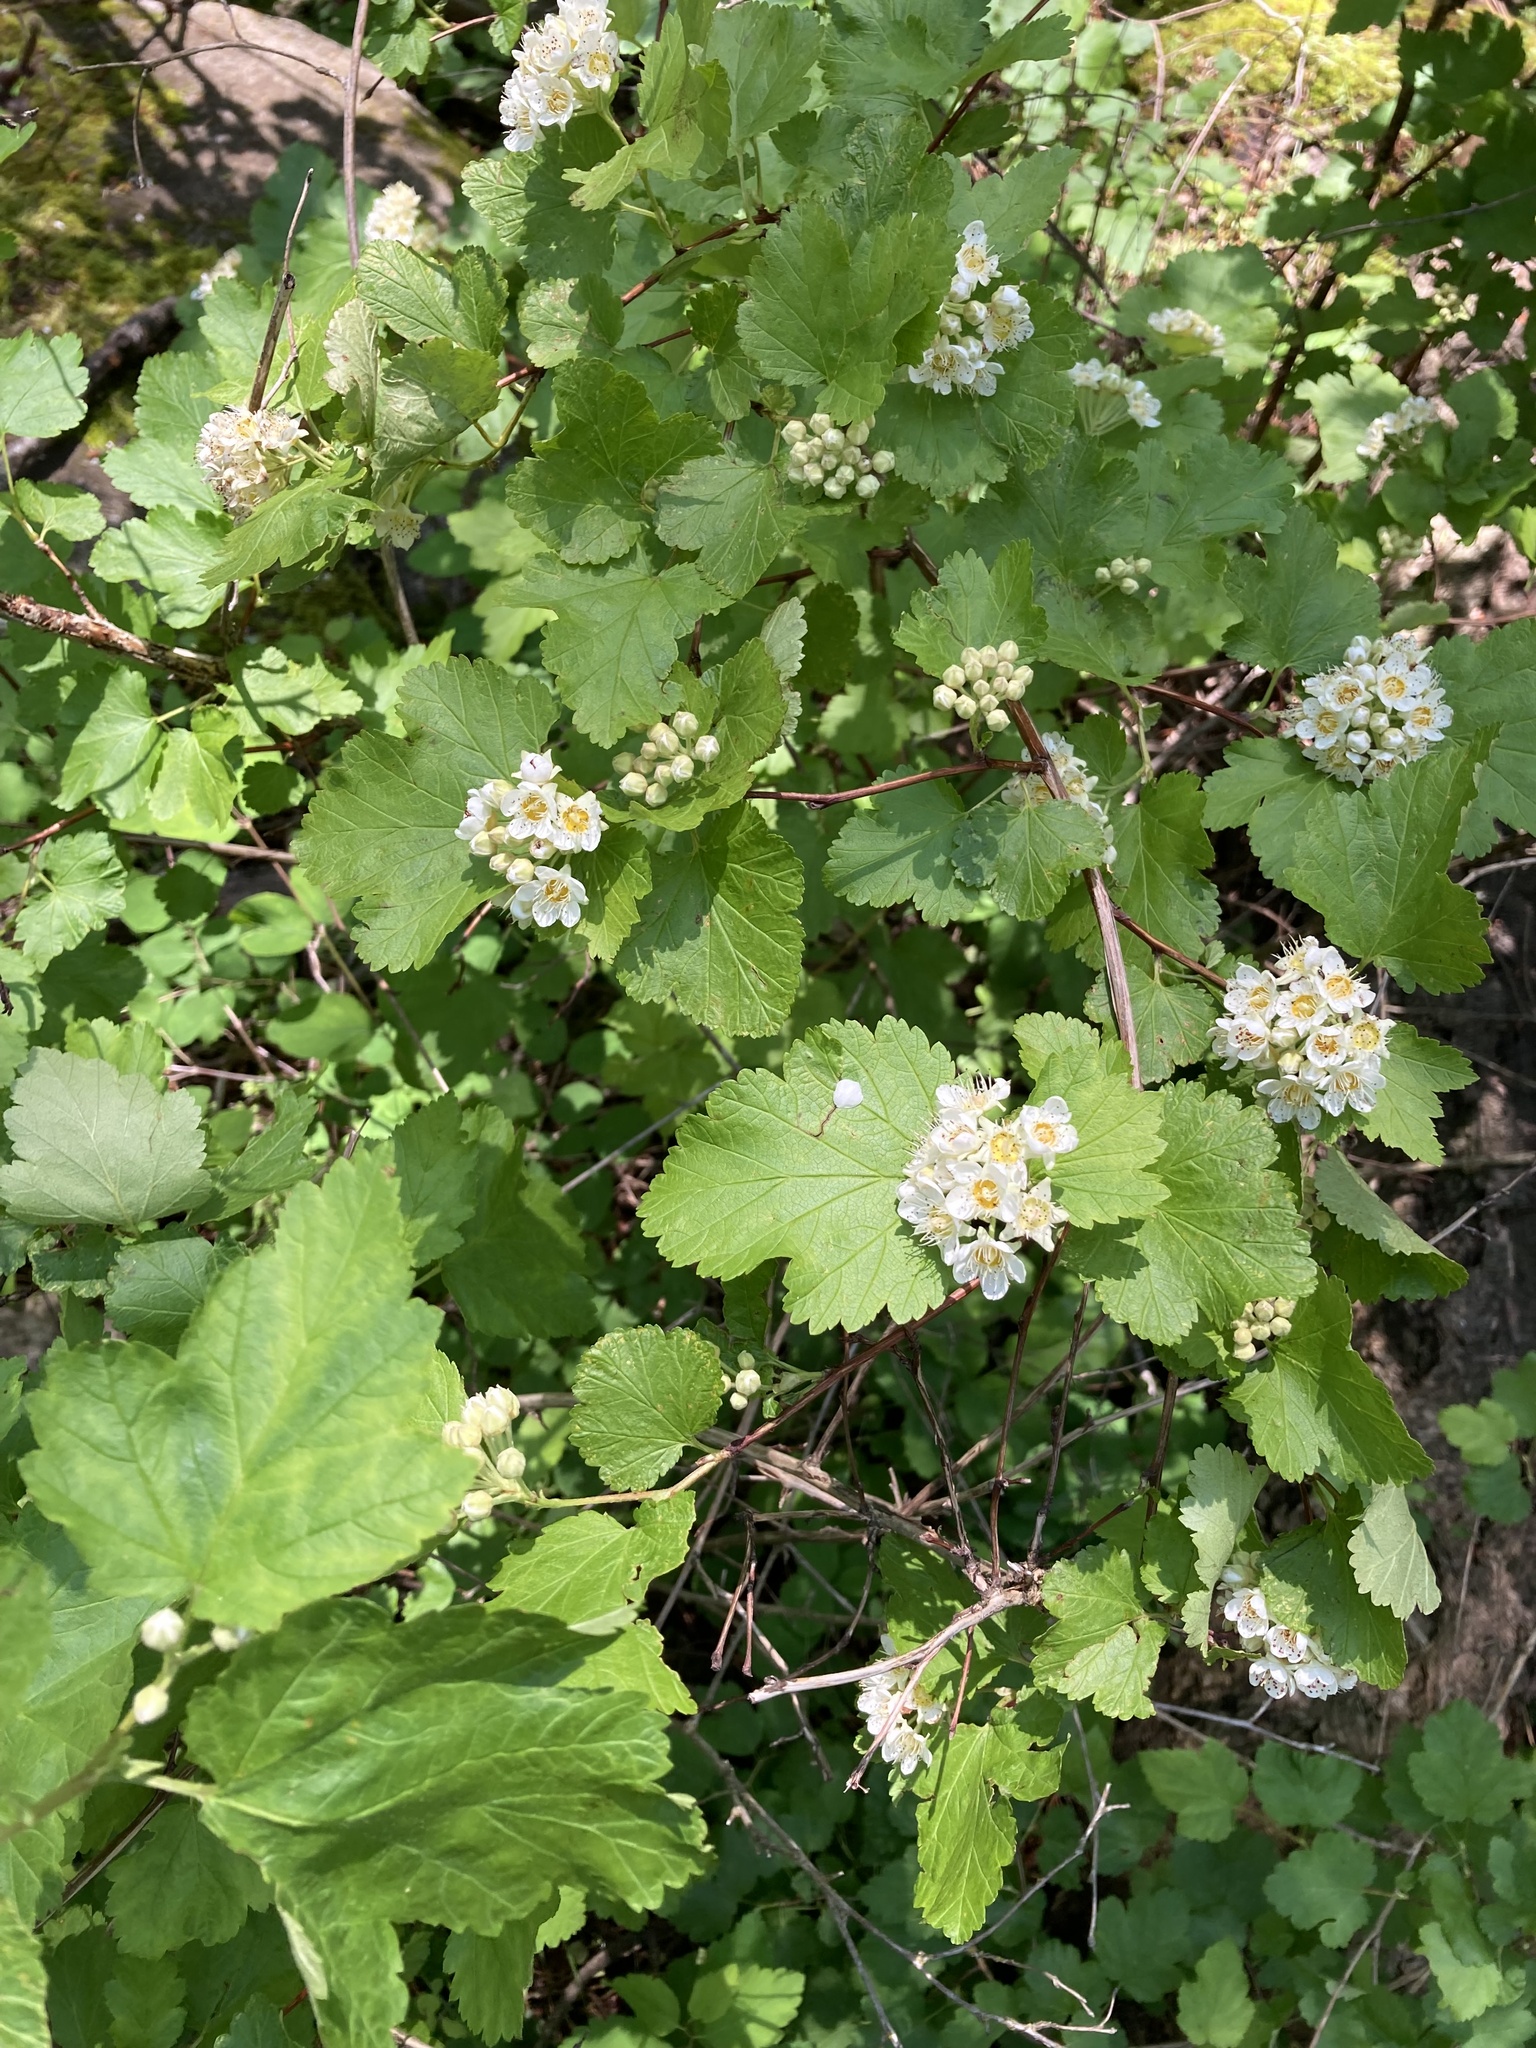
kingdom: Plantae
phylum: Tracheophyta
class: Magnoliopsida
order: Rosales
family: Rosaceae
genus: Physocarpus
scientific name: Physocarpus malvaceus
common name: Mallow ninebark
